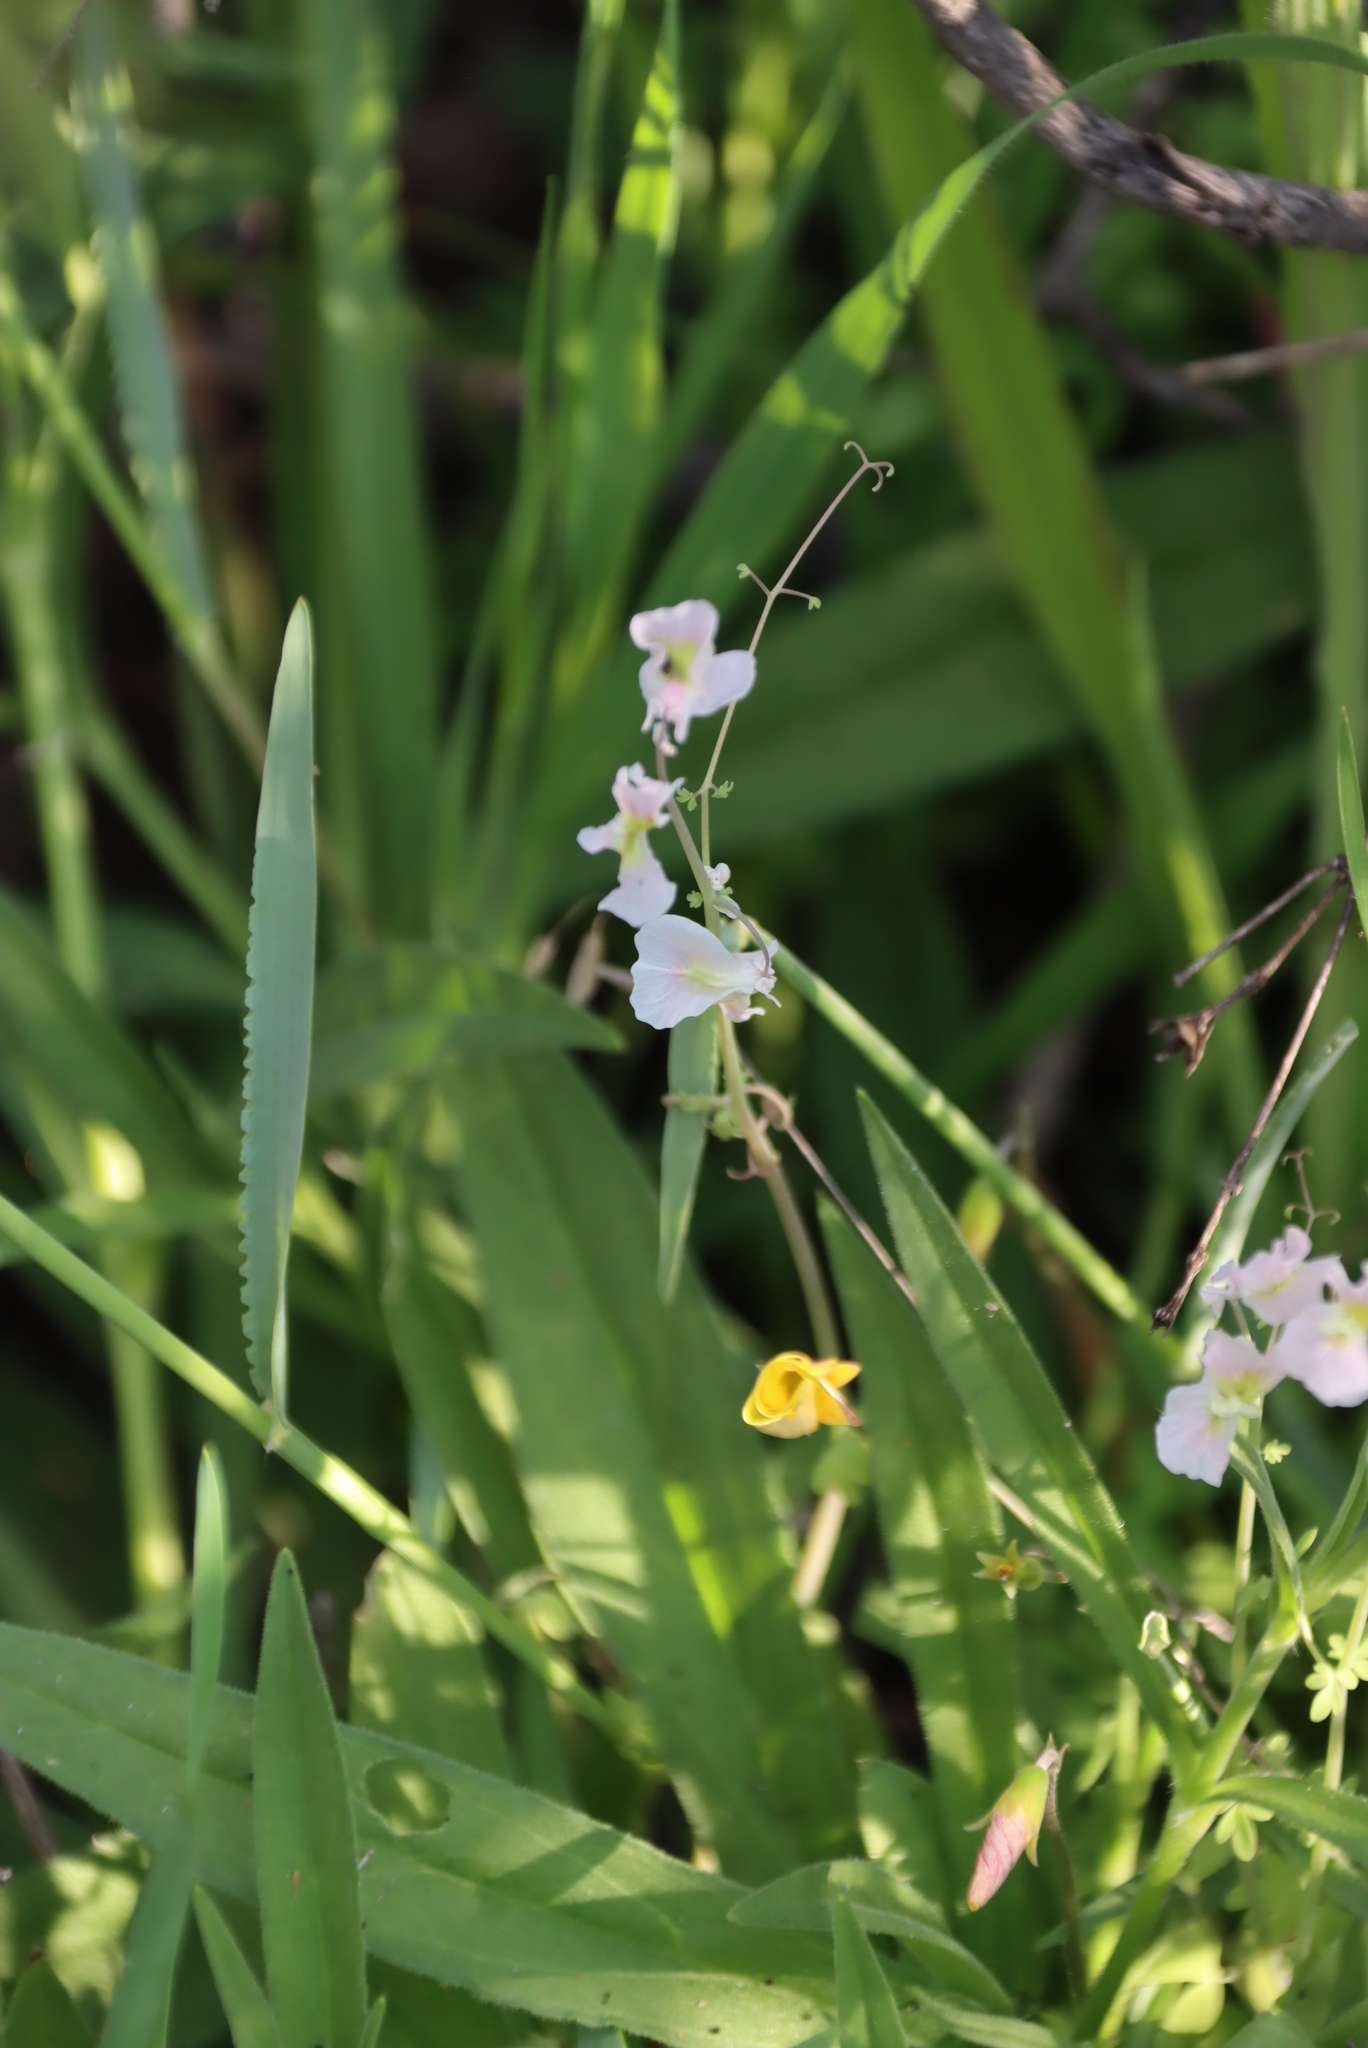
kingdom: Plantae
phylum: Tracheophyta
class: Magnoliopsida
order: Ranunculales
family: Papaveraceae
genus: Cysticapnos
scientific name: Cysticapnos vesicaria
